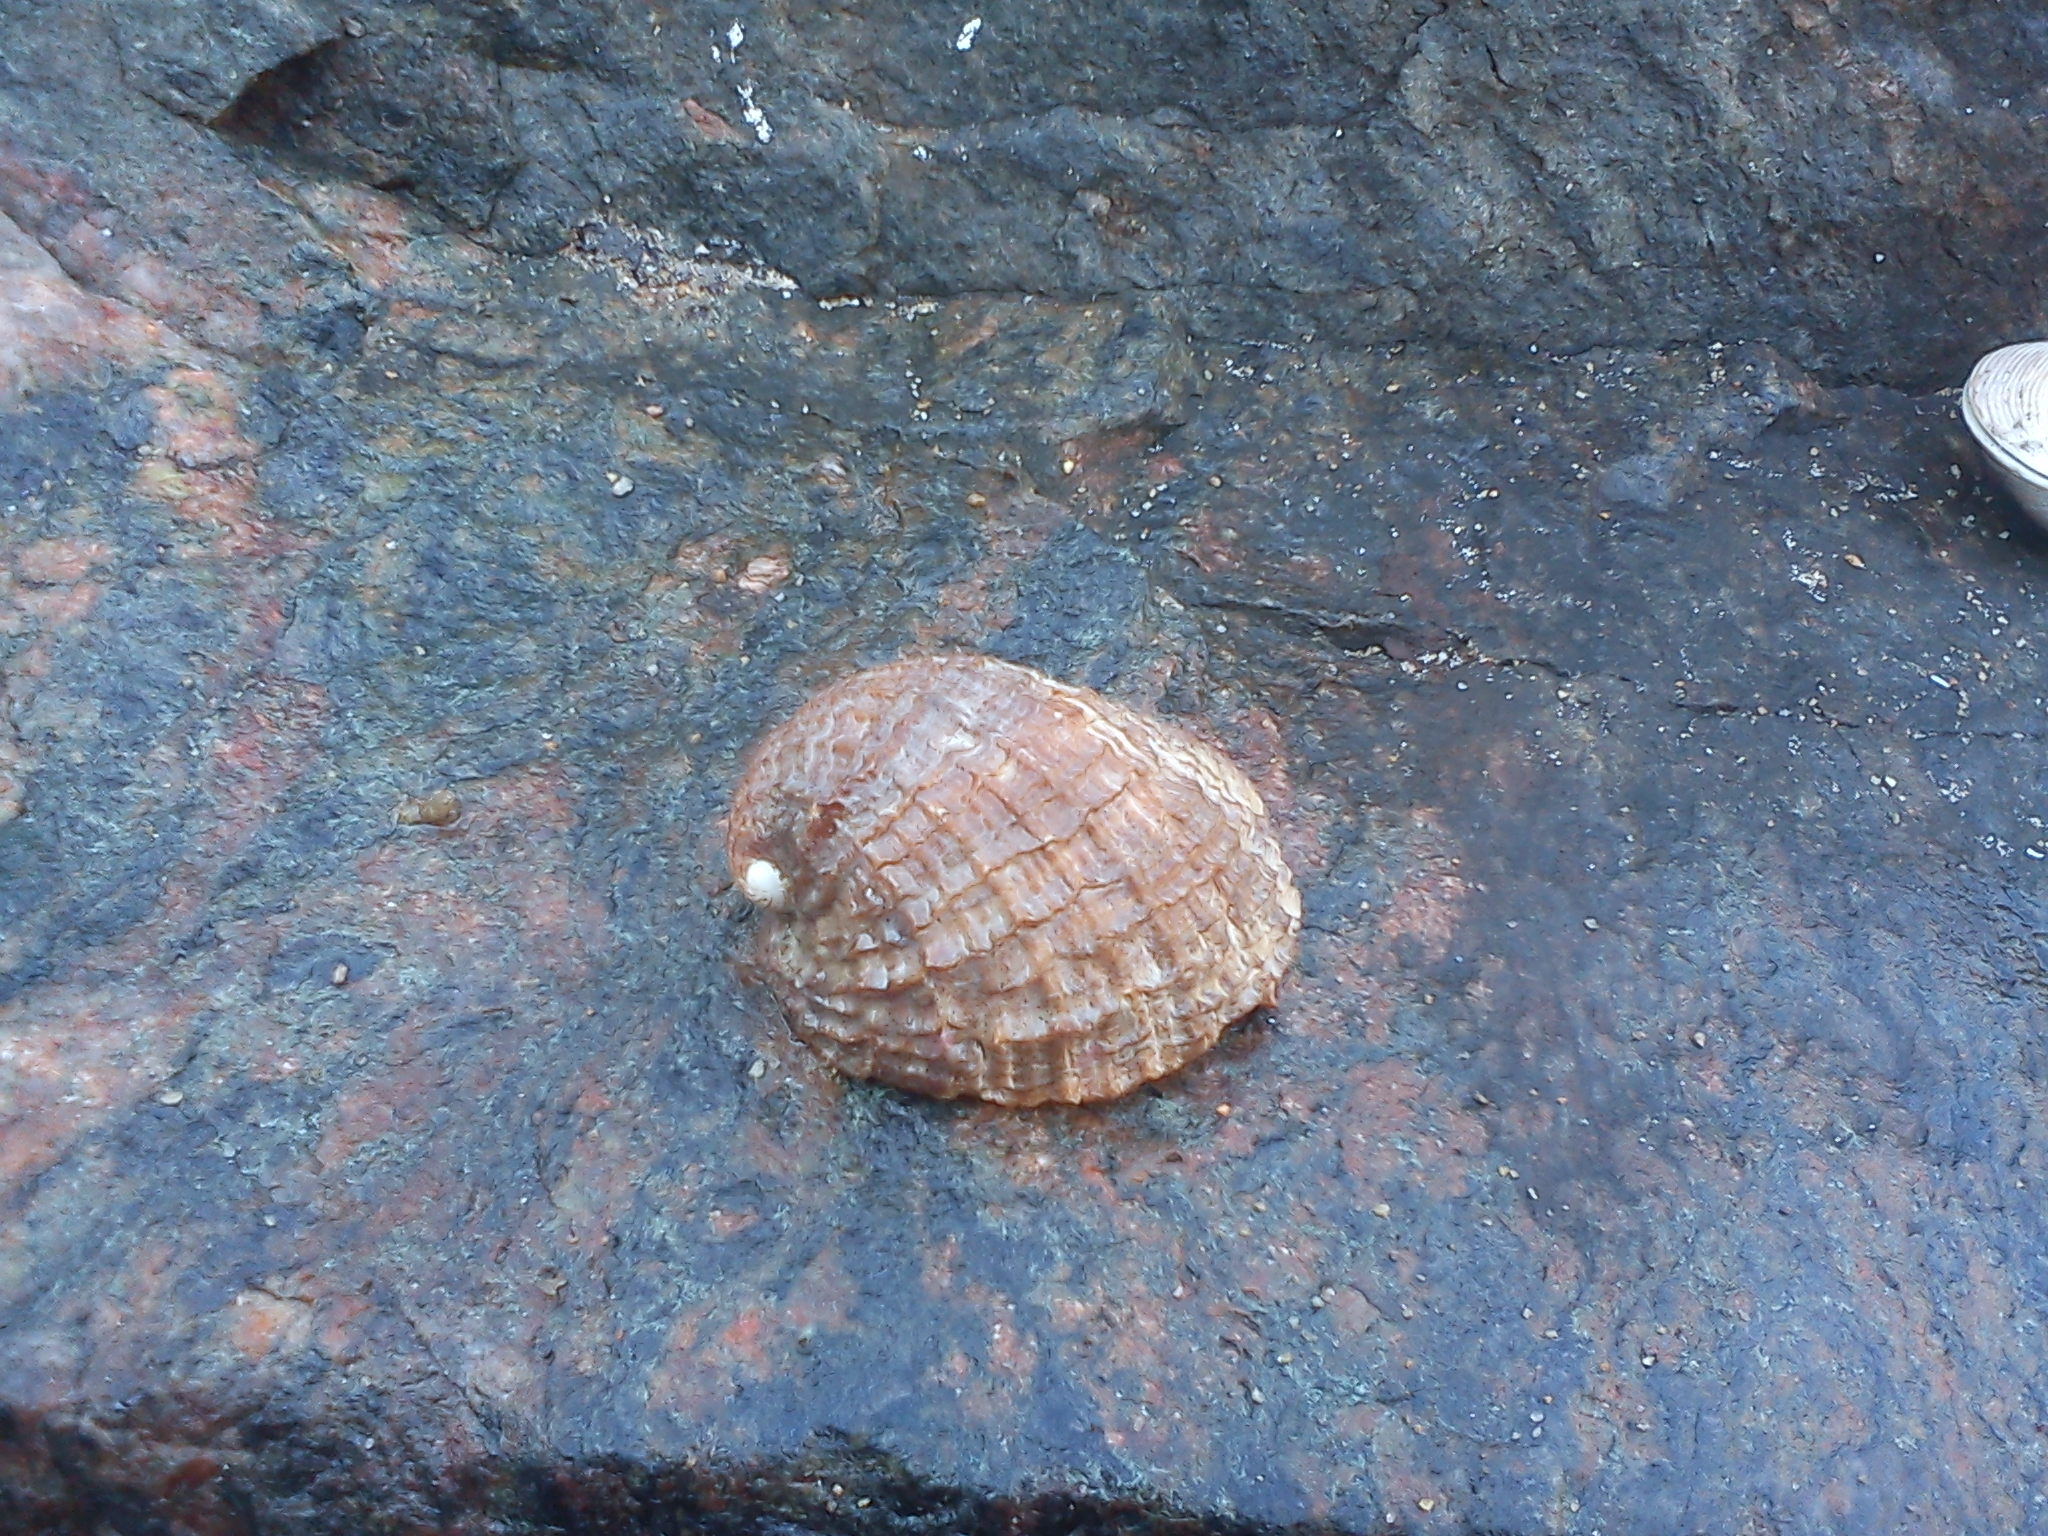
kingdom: Animalia
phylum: Mollusca
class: Gastropoda
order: Neogastropoda
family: Muricidae
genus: Concholepas
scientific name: Concholepas concholepas
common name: Chilean abalone
